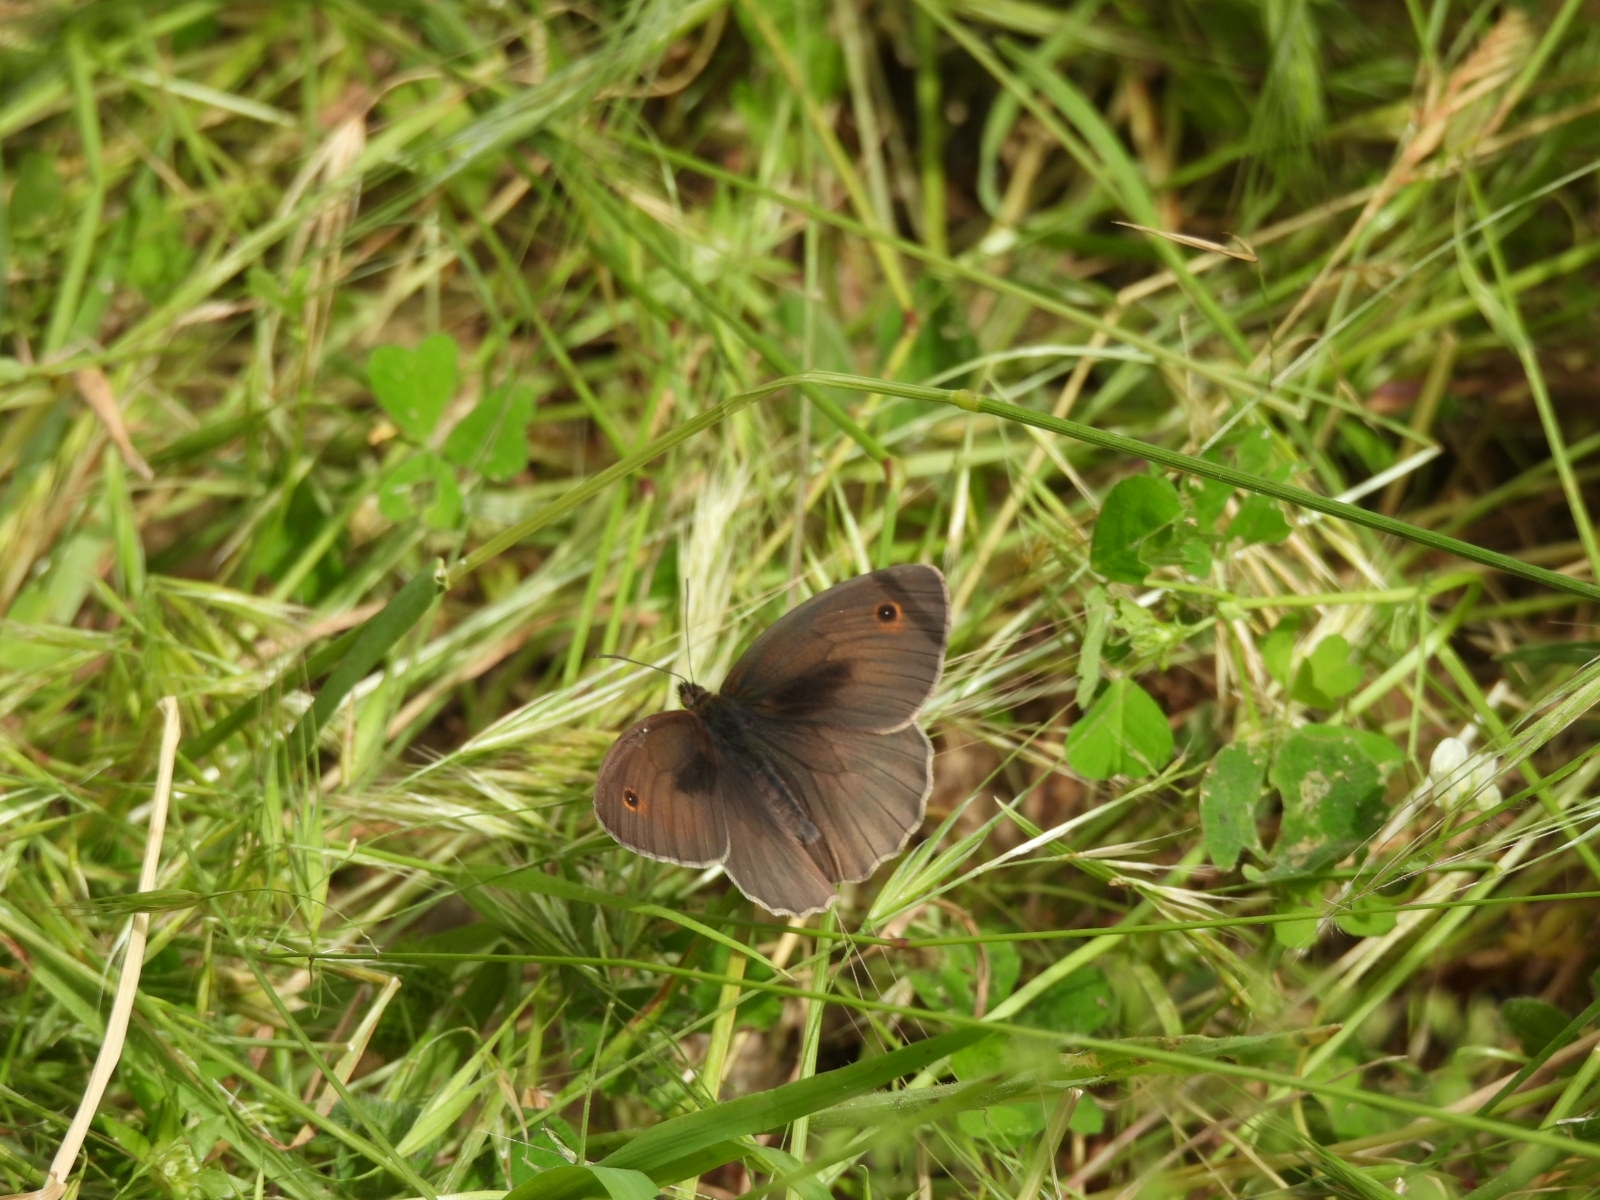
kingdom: Animalia
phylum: Arthropoda
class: Insecta
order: Lepidoptera
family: Nymphalidae
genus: Maniola
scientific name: Maniola jurtina
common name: Meadow brown
